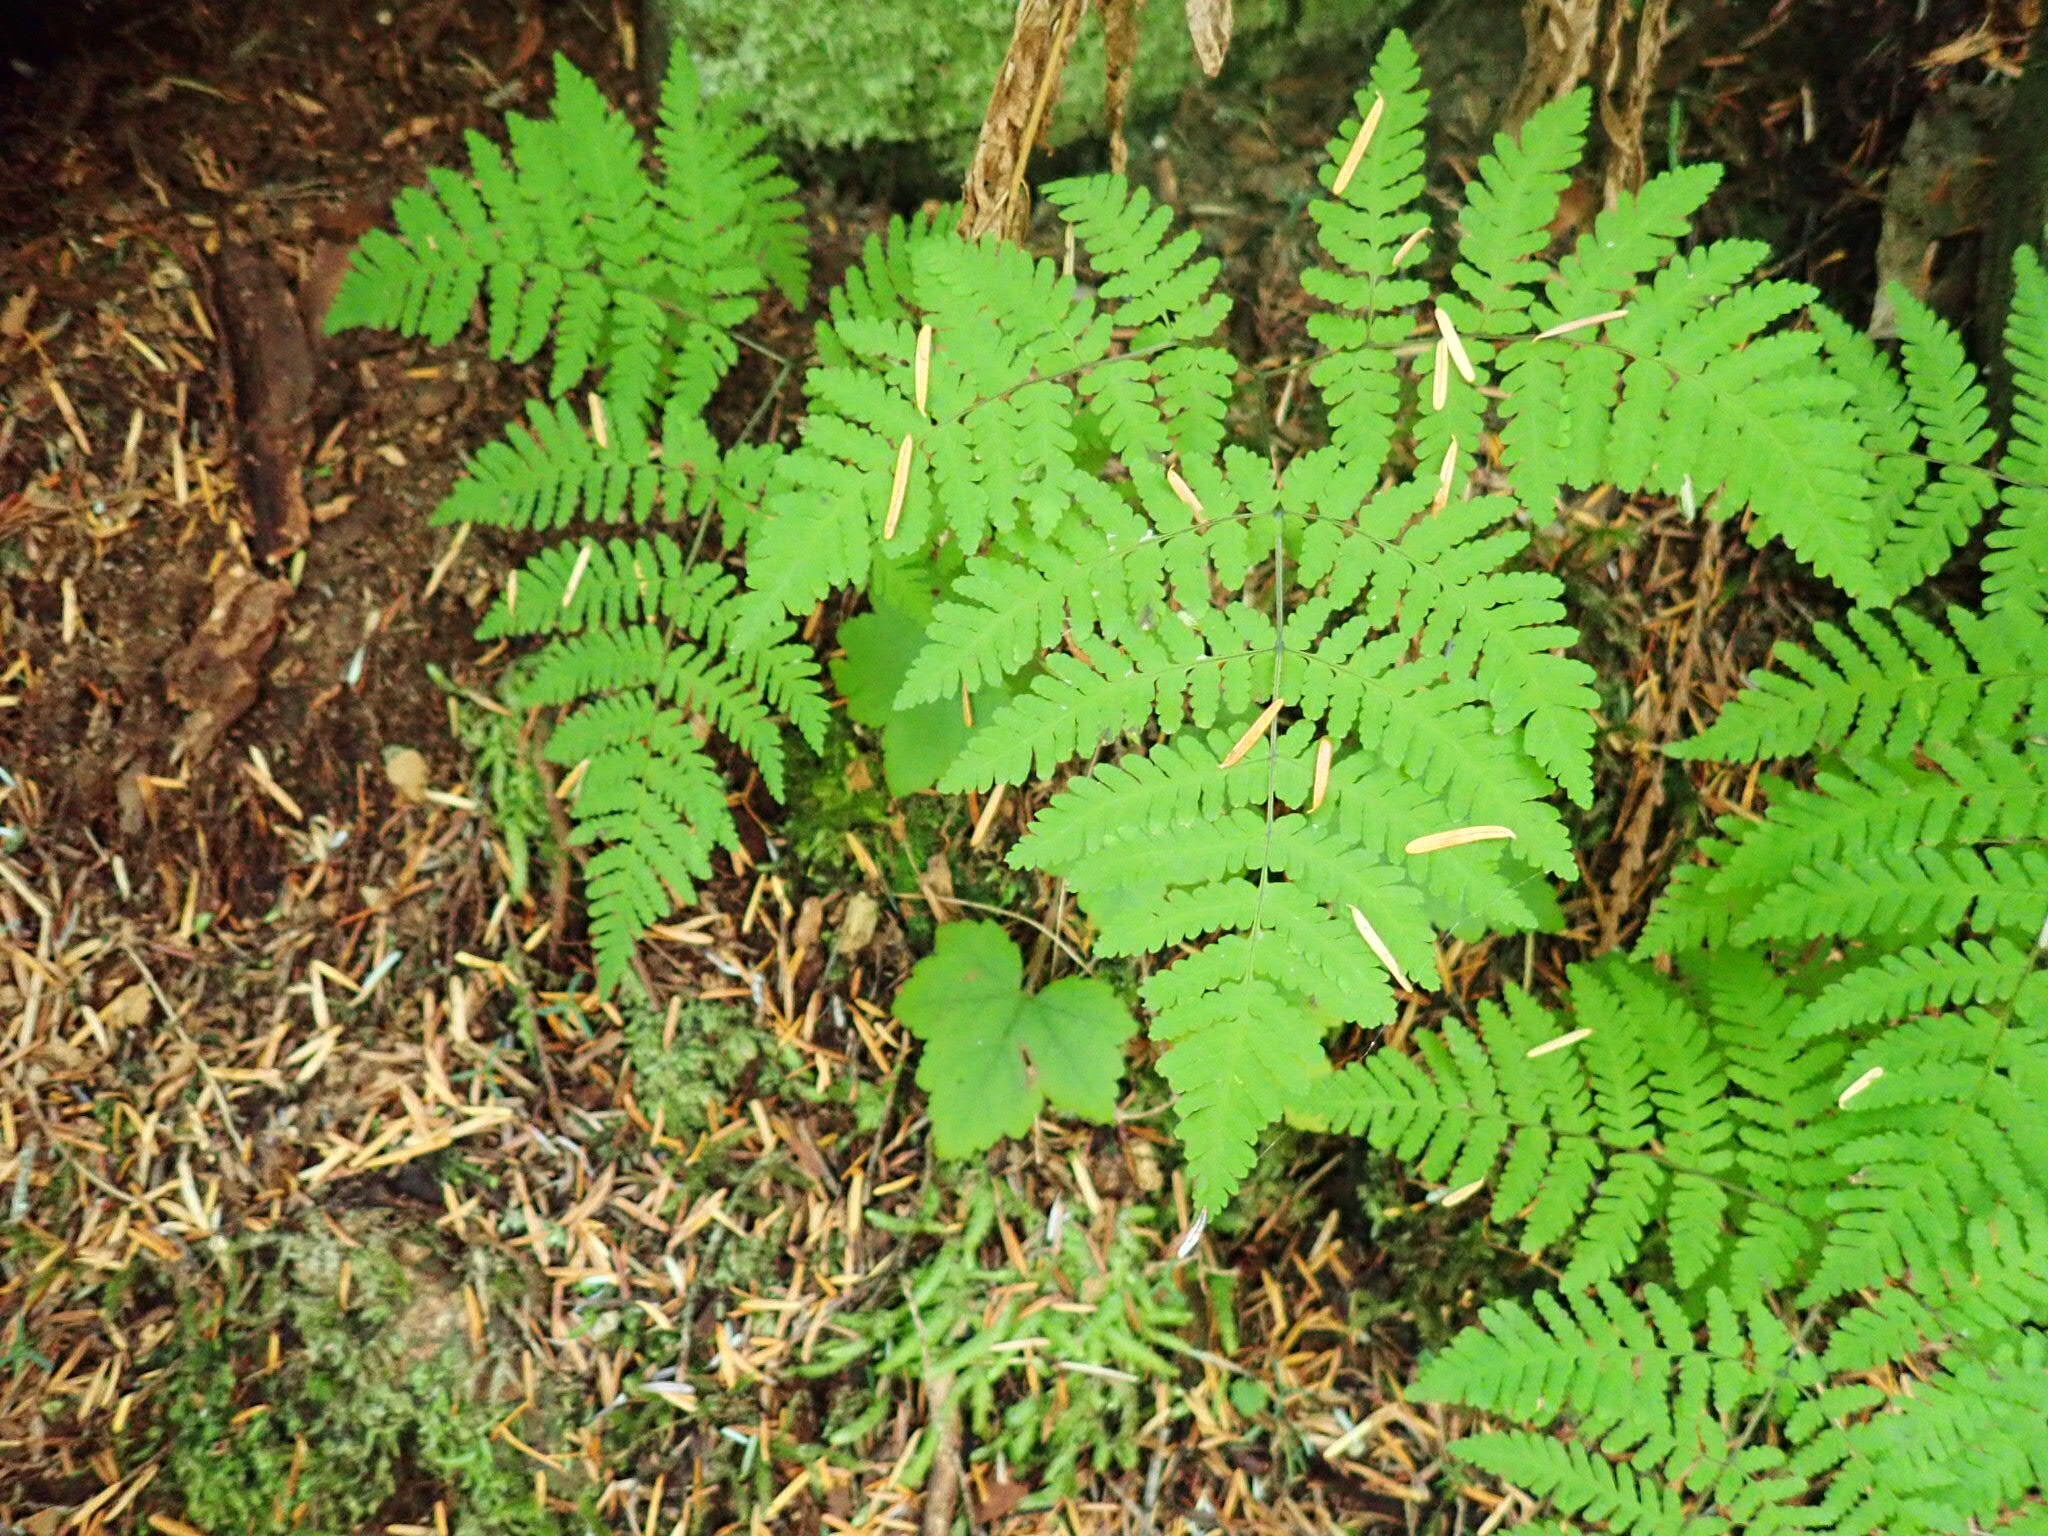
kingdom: Plantae
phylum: Tracheophyta
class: Polypodiopsida
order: Polypodiales
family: Cystopteridaceae
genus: Gymnocarpium
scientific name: Gymnocarpium disjunctum
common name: Western oak fern
